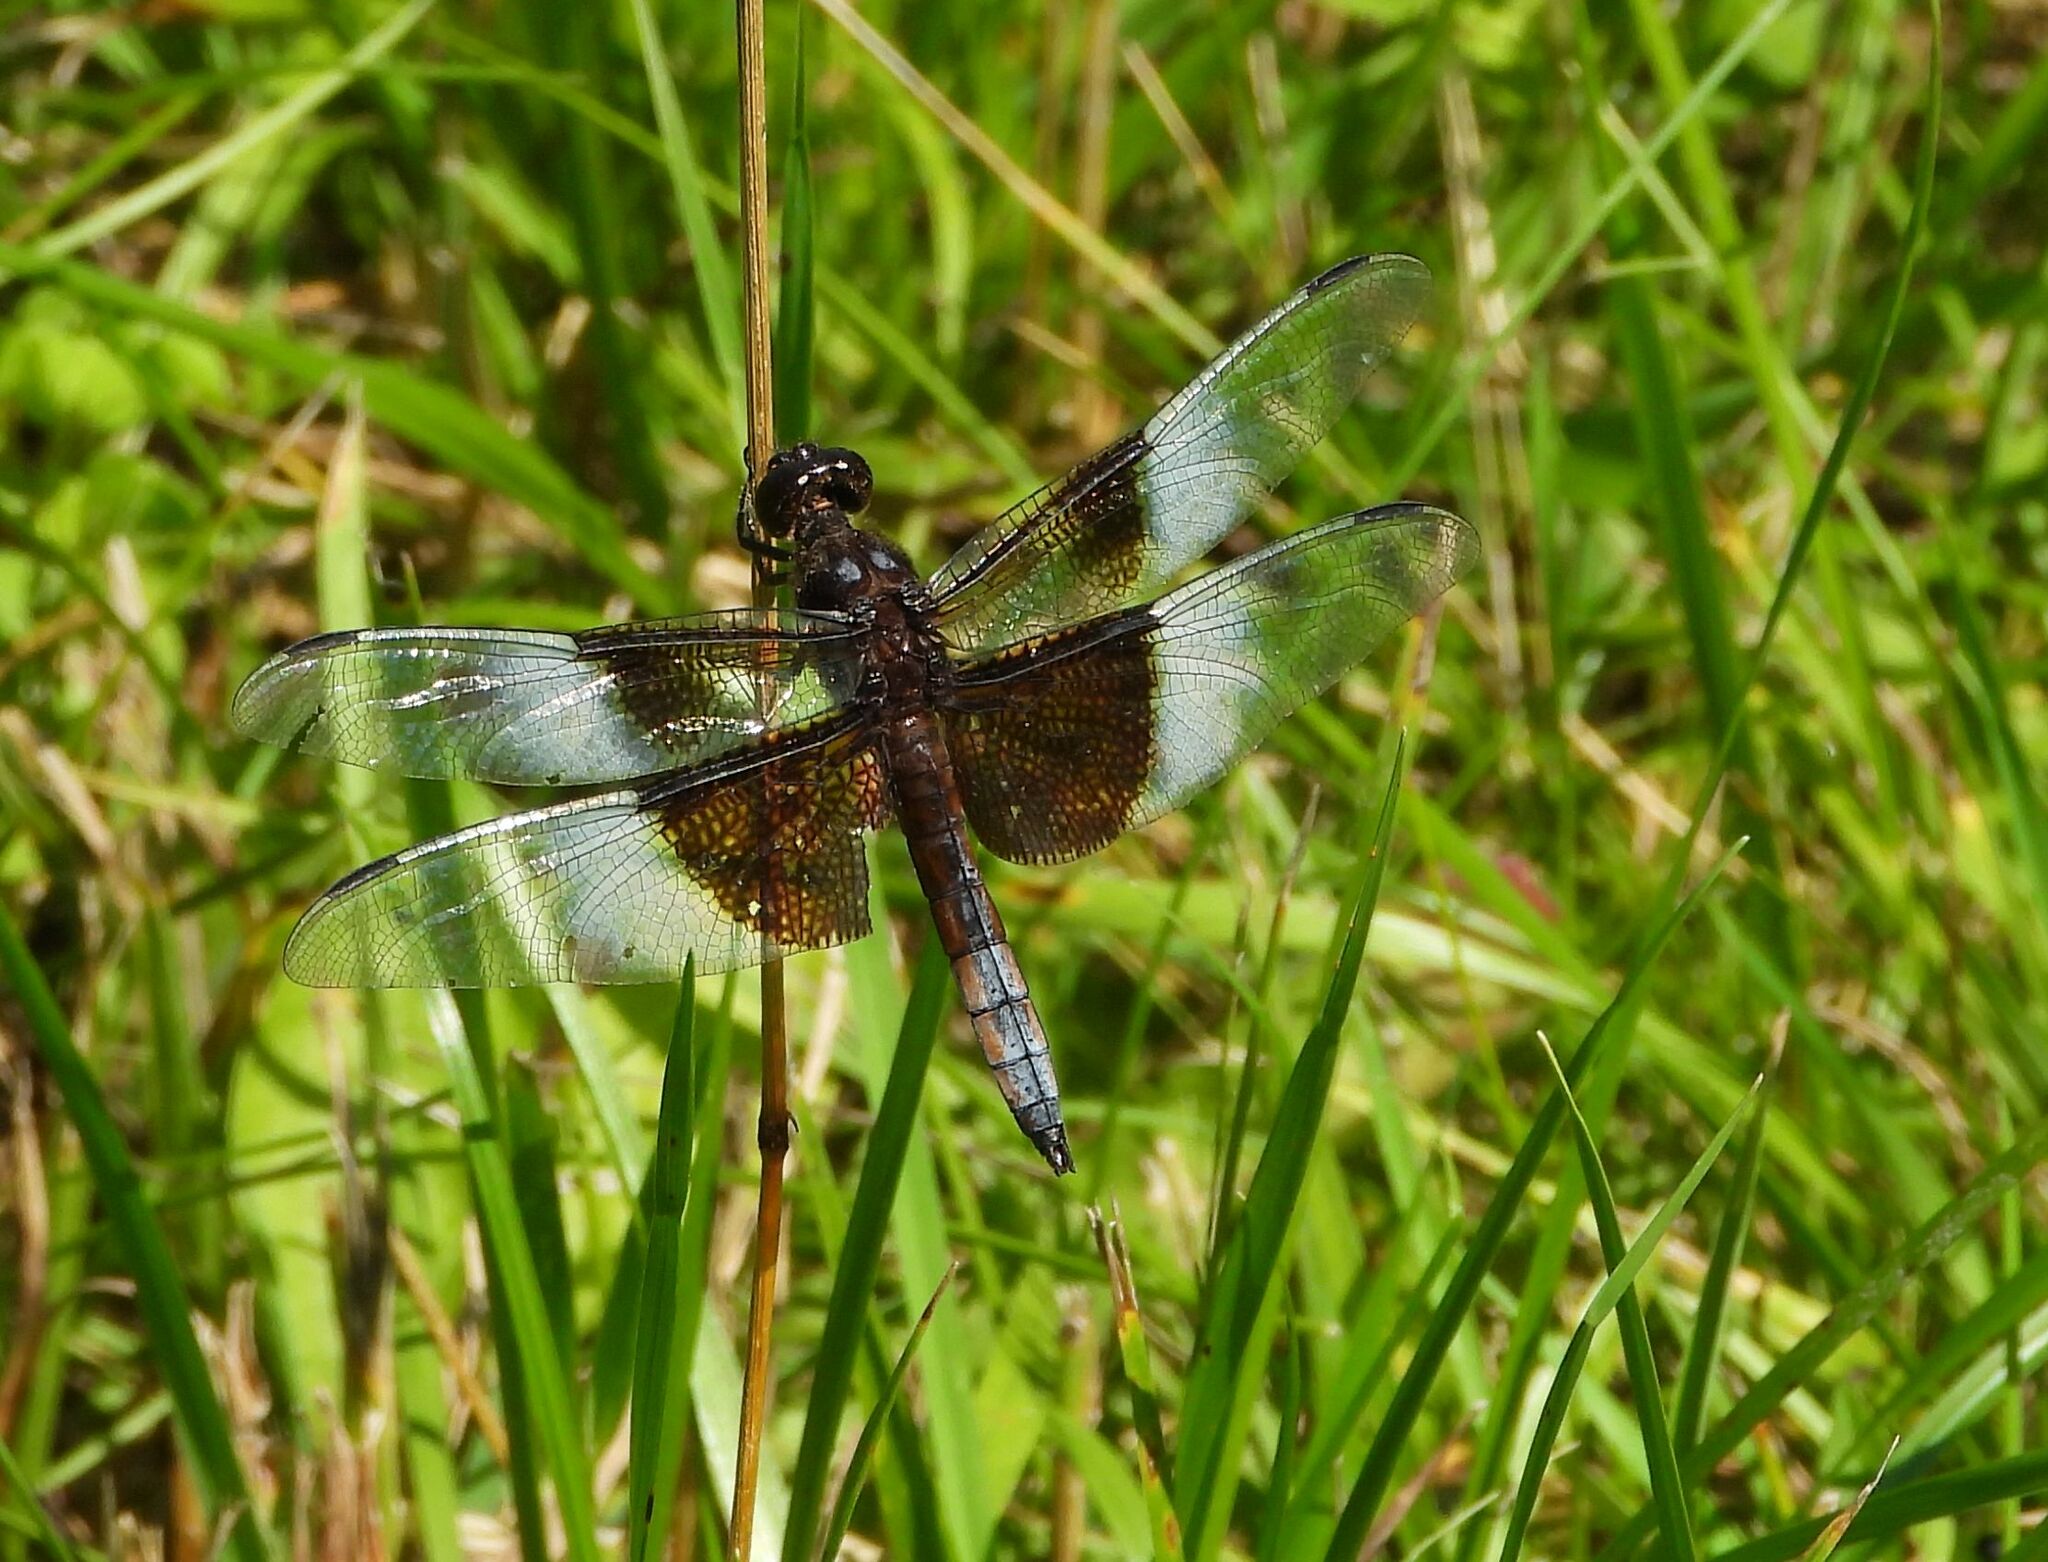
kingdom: Animalia
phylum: Arthropoda
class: Insecta
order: Odonata
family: Libellulidae
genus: Libellula
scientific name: Libellula luctuosa
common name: Widow skimmer
